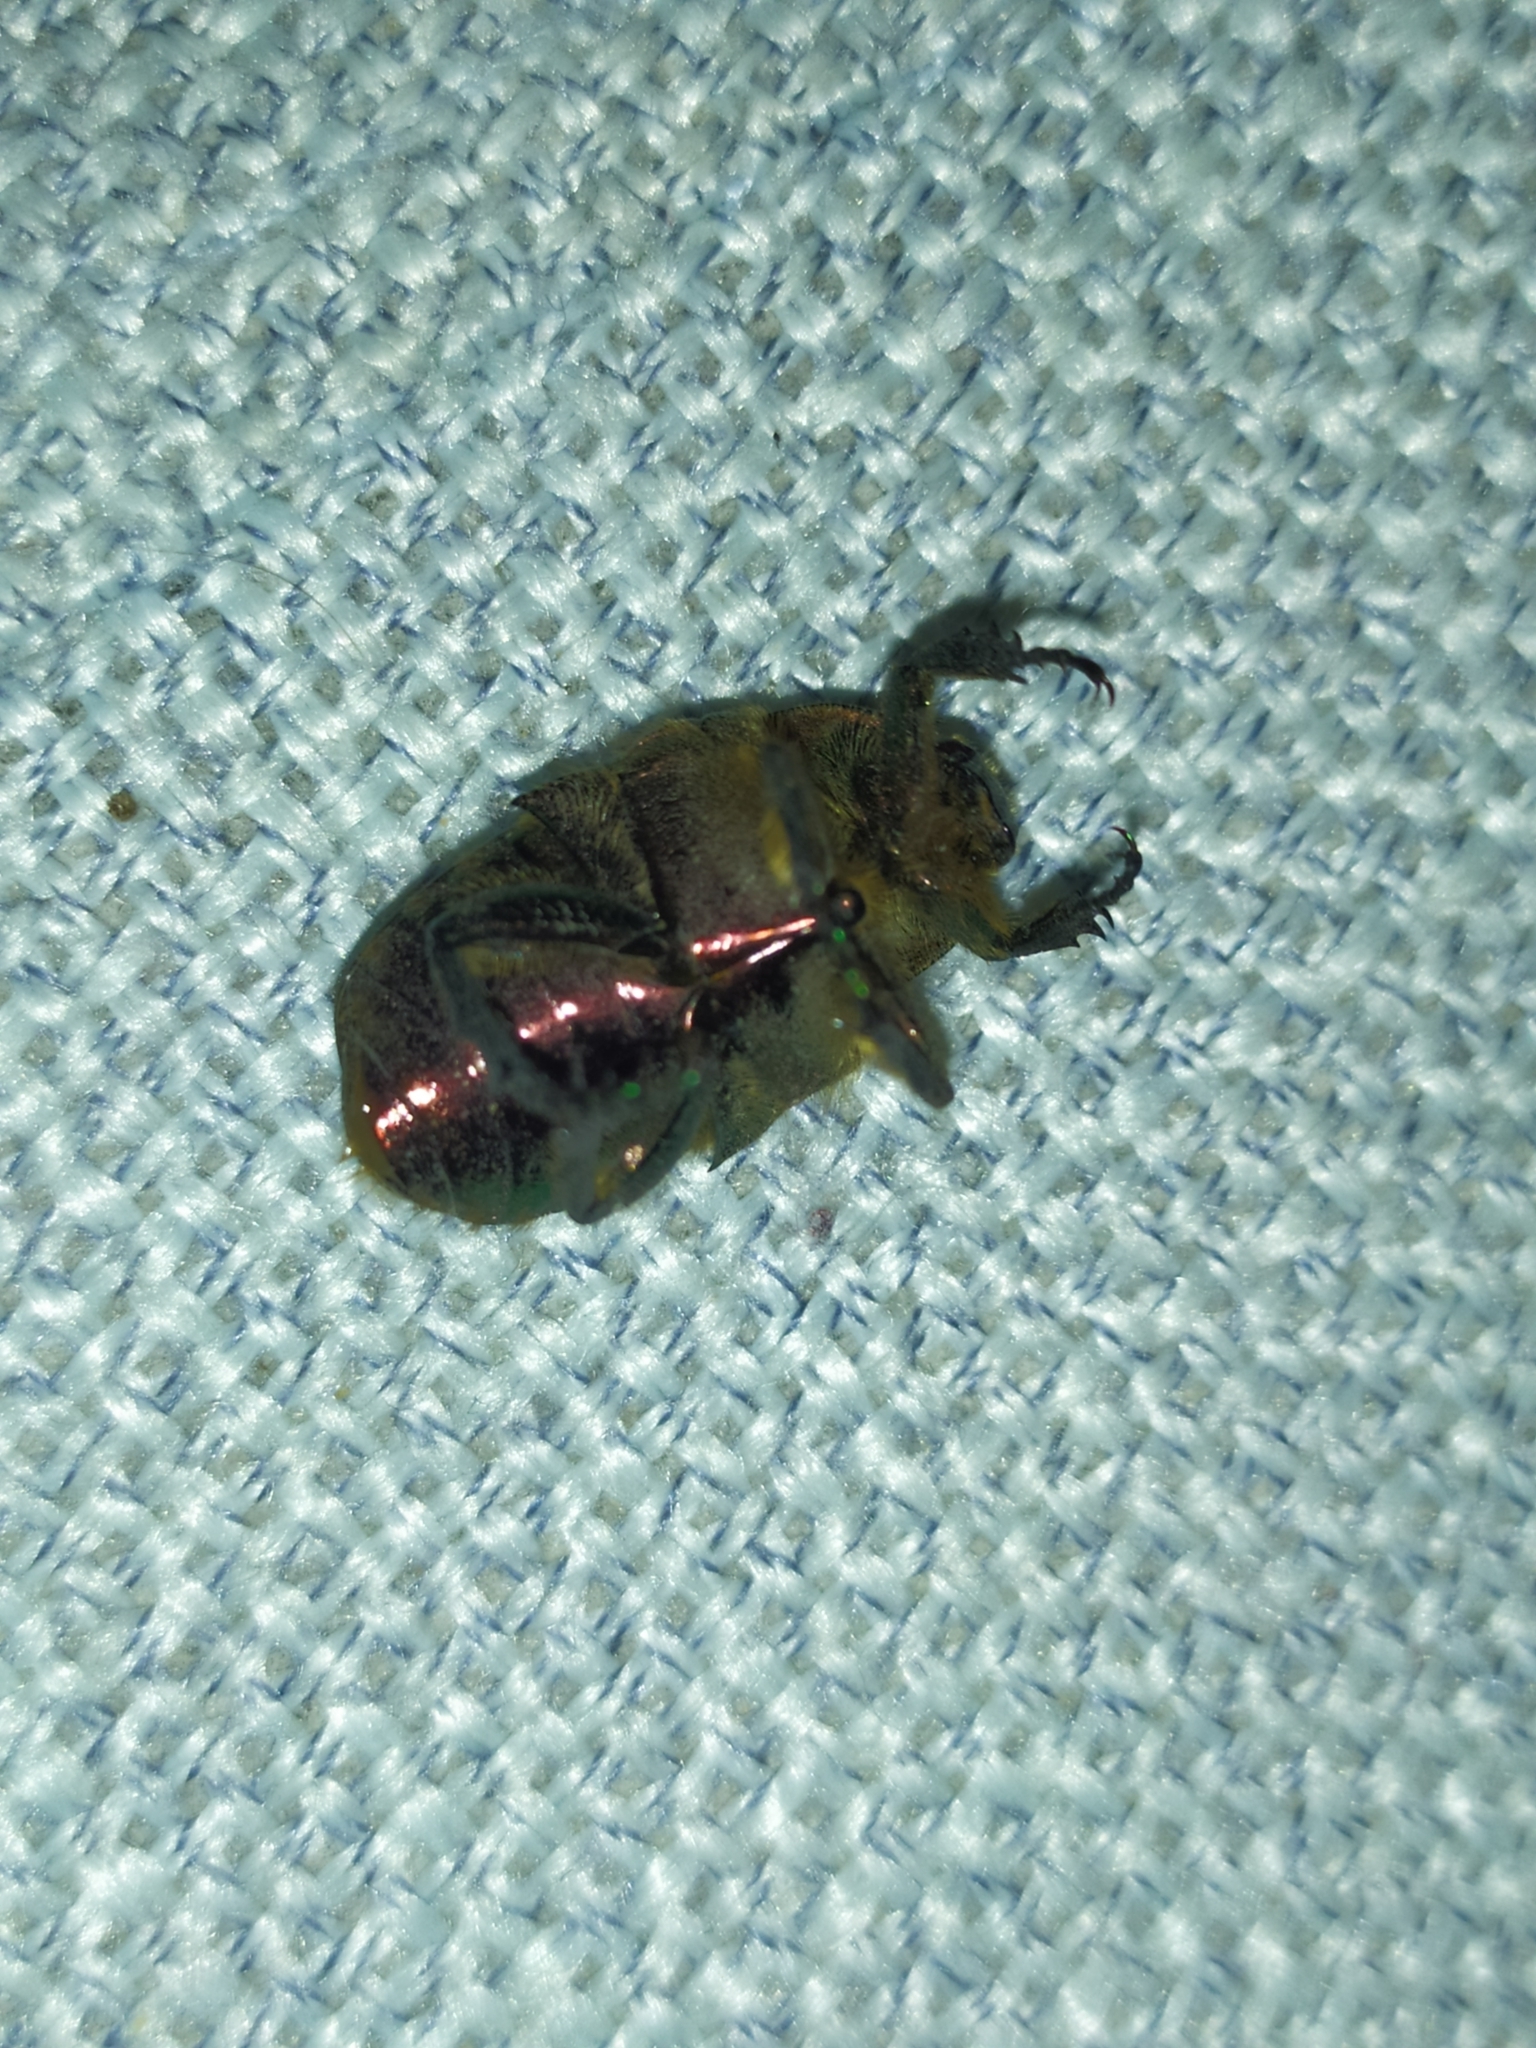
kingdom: Animalia
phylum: Arthropoda
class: Insecta
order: Coleoptera
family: Scarabaeidae
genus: Cetonia
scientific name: Cetonia aurata
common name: Rose chafer
